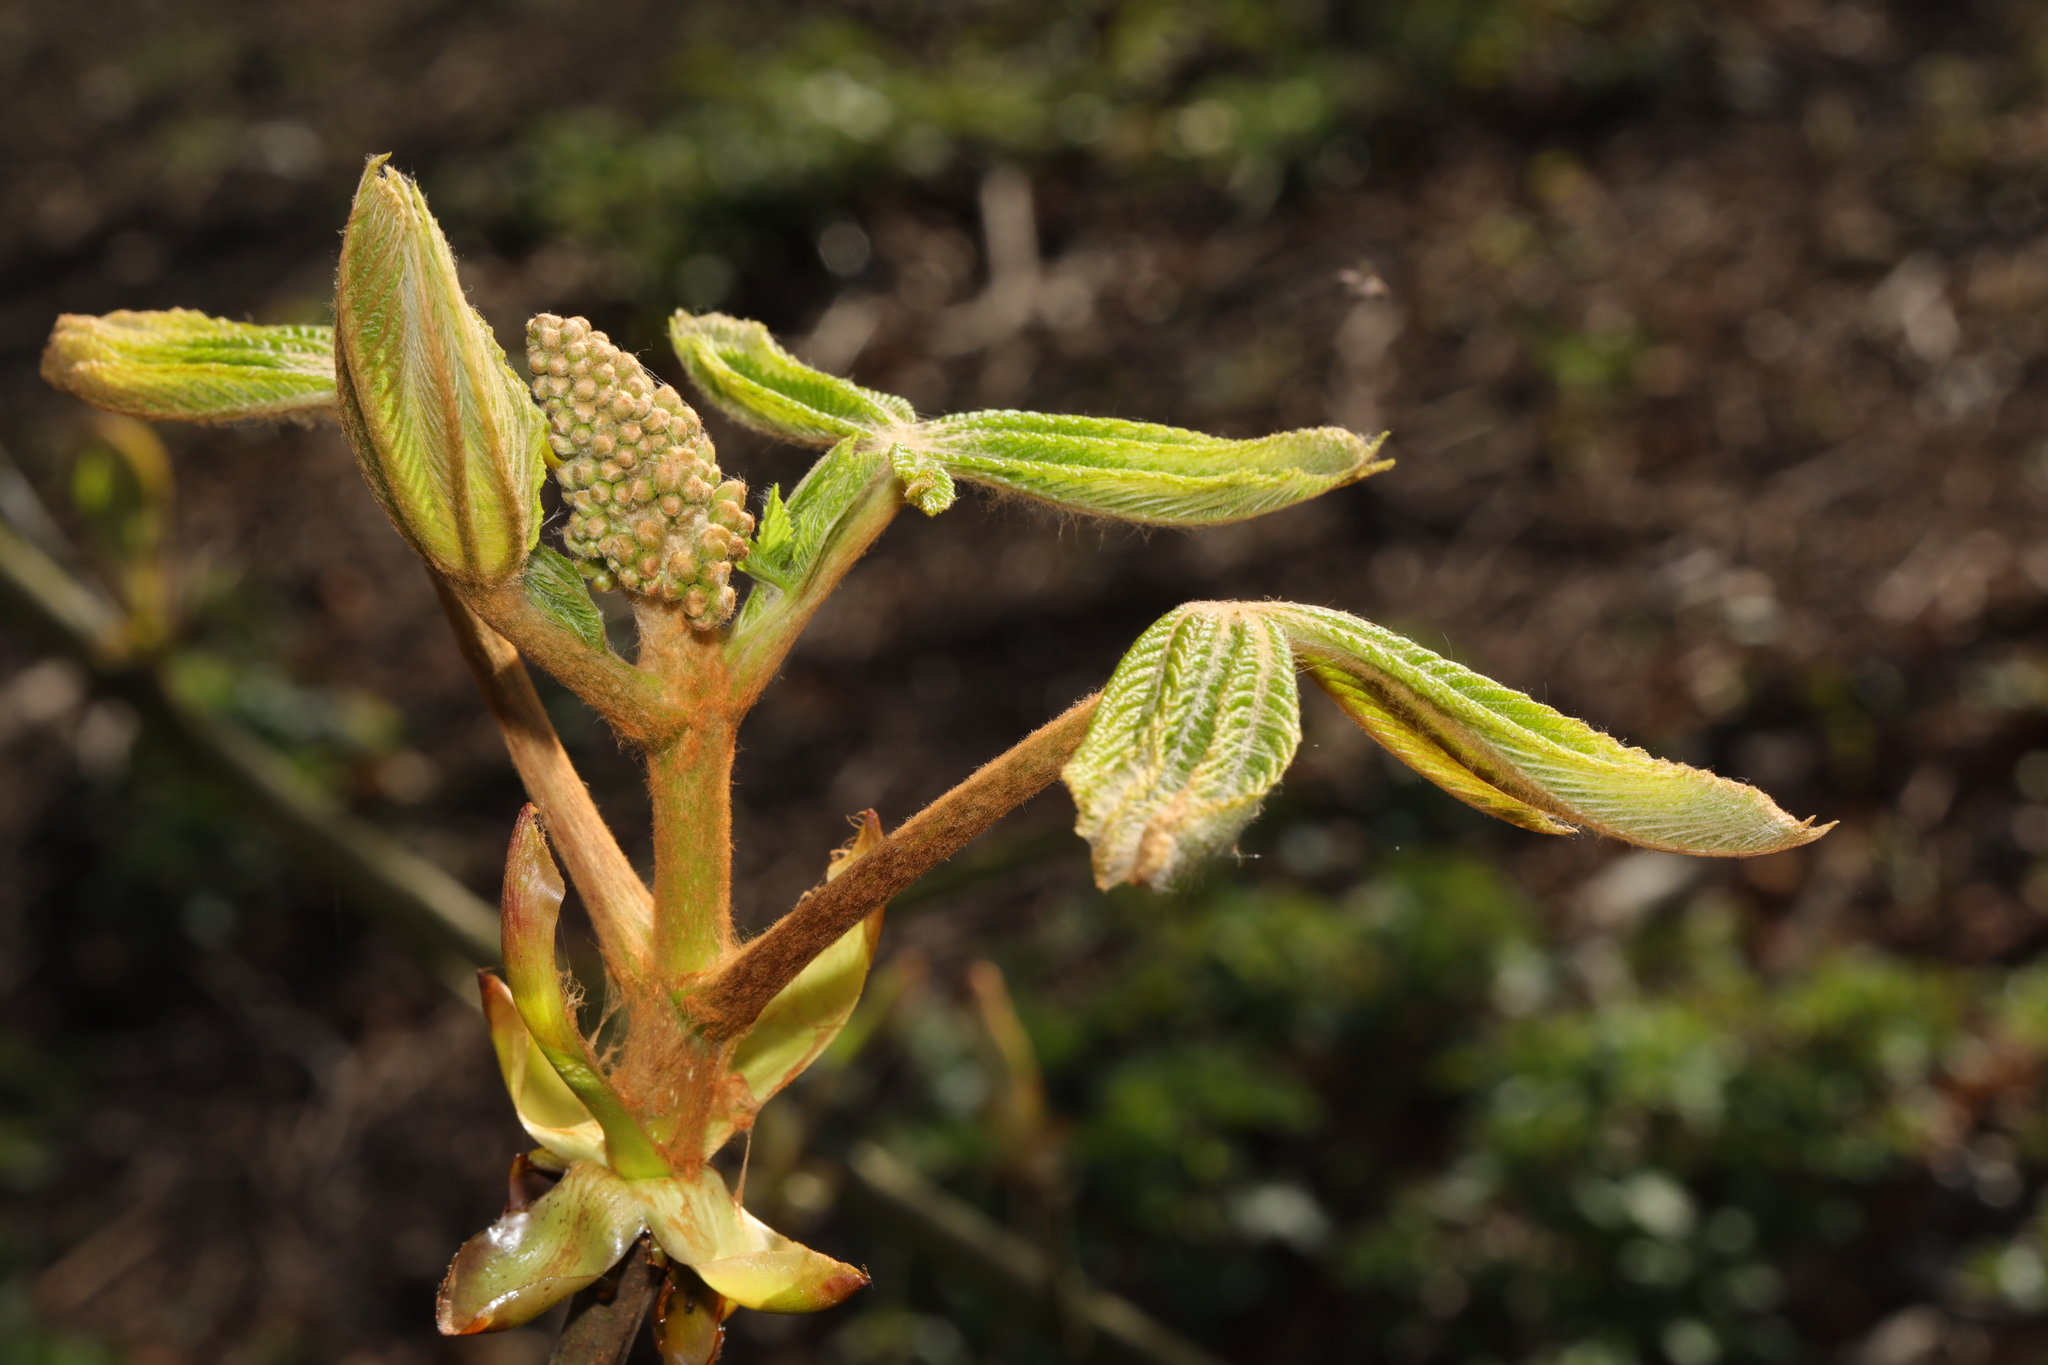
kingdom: Plantae
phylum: Tracheophyta
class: Magnoliopsida
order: Sapindales
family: Sapindaceae
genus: Aesculus
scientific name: Aesculus hippocastanum
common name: Horse-chestnut
